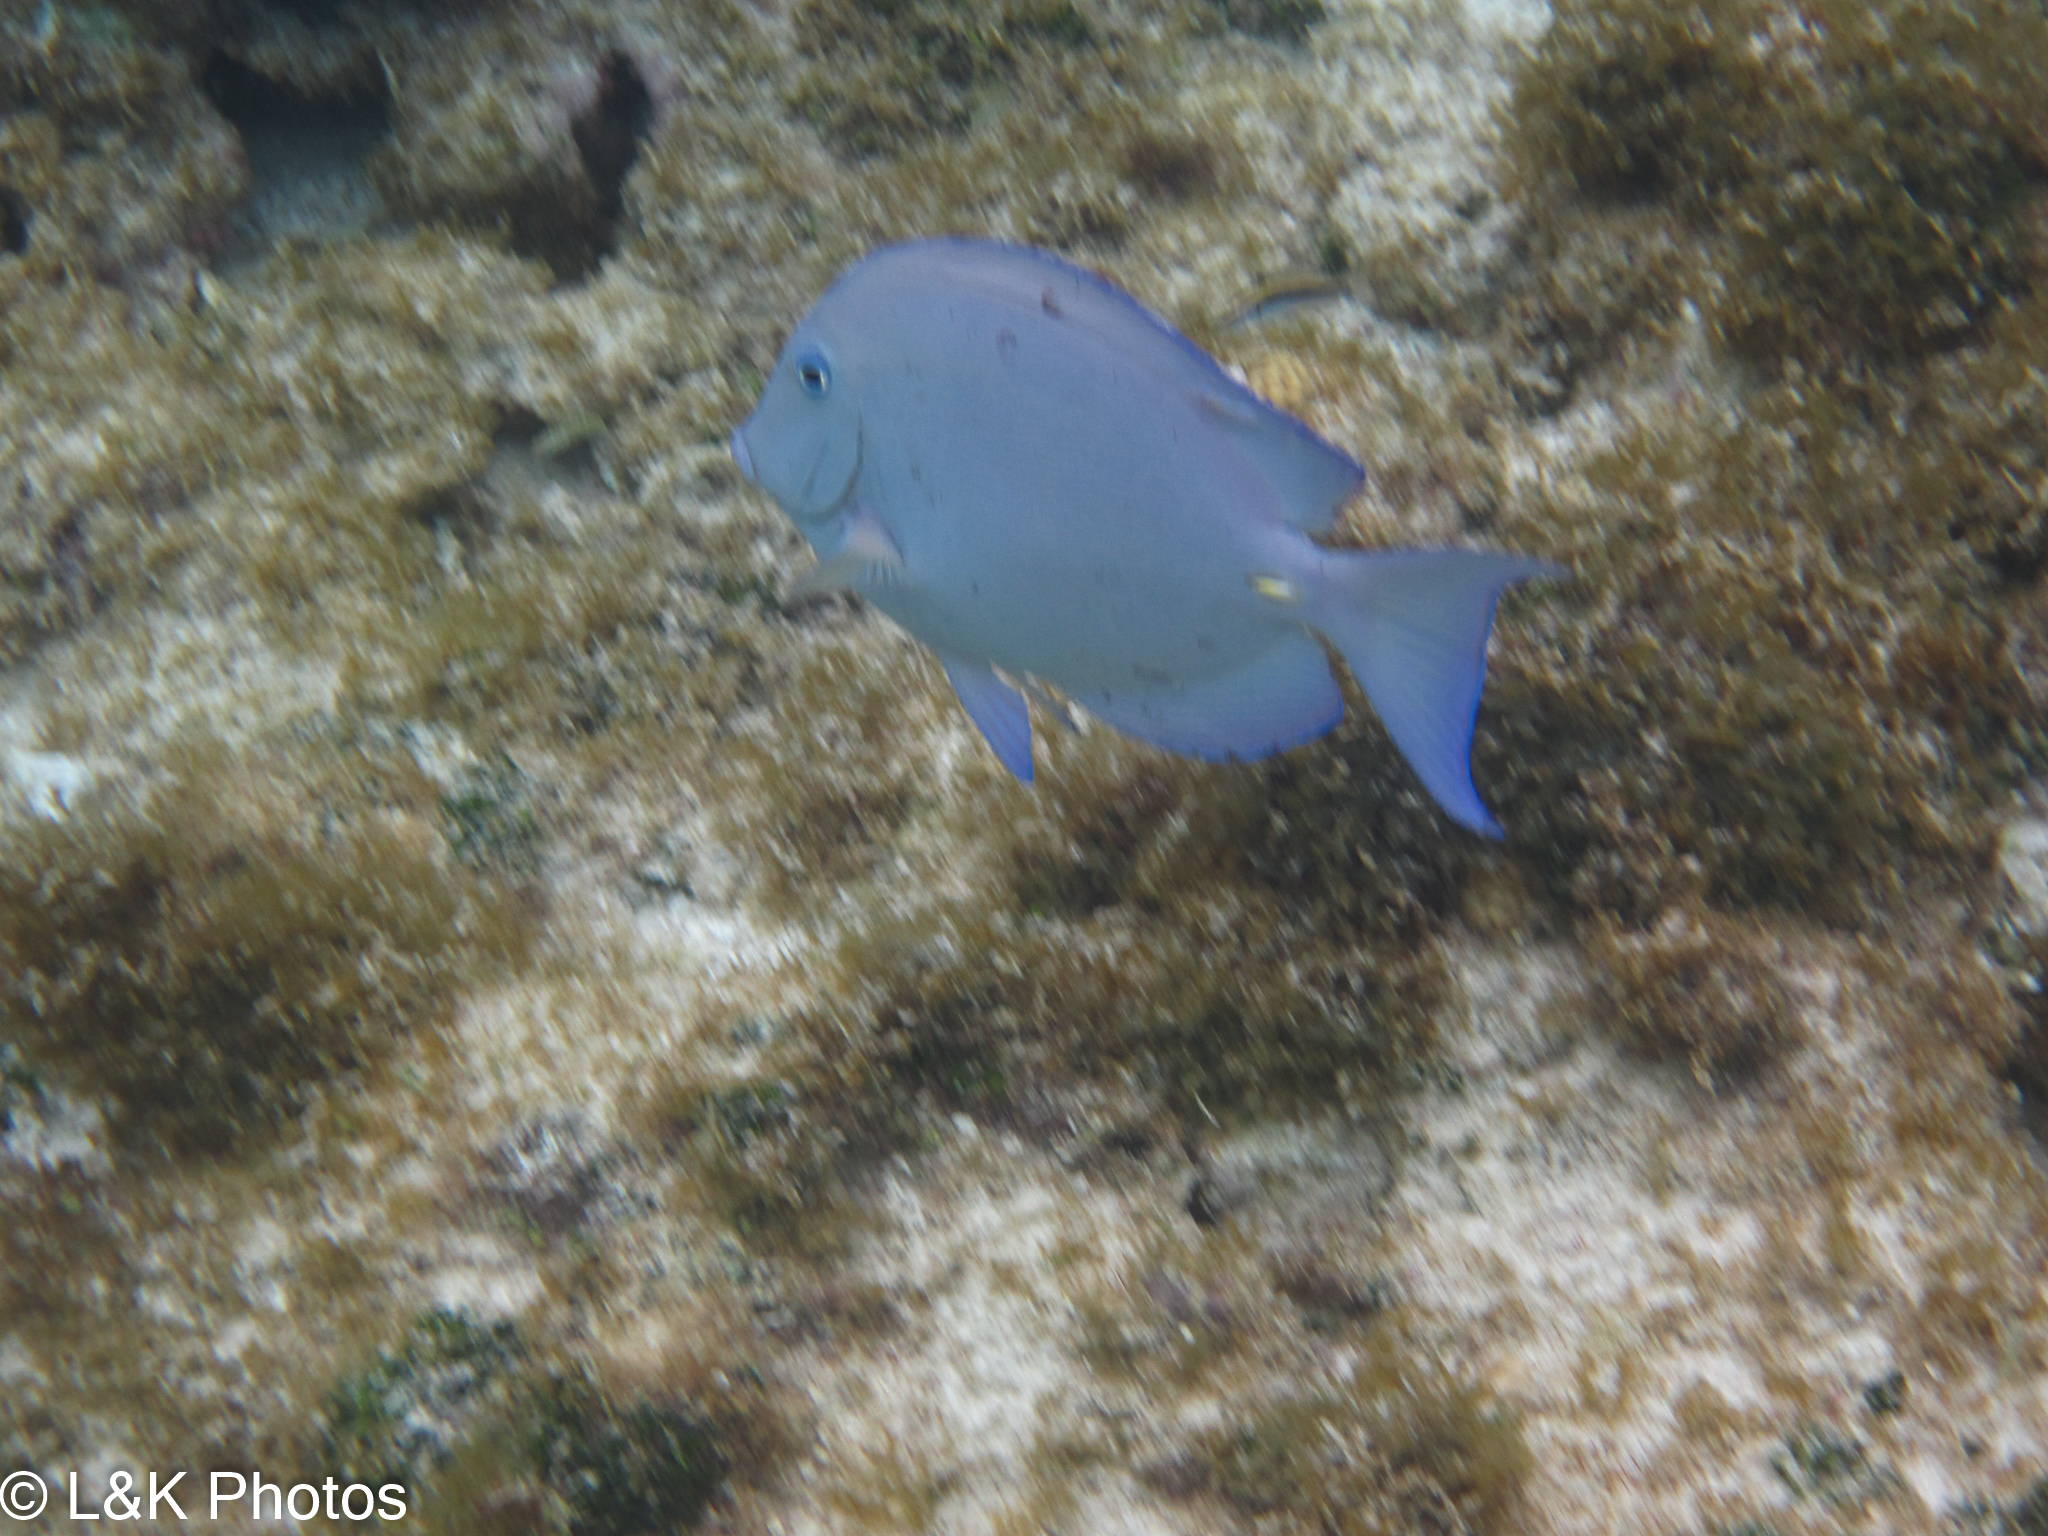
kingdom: Animalia
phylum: Chordata
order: Perciformes
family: Acanthuridae
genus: Acanthurus
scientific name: Acanthurus coeruleus
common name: Blue tang
